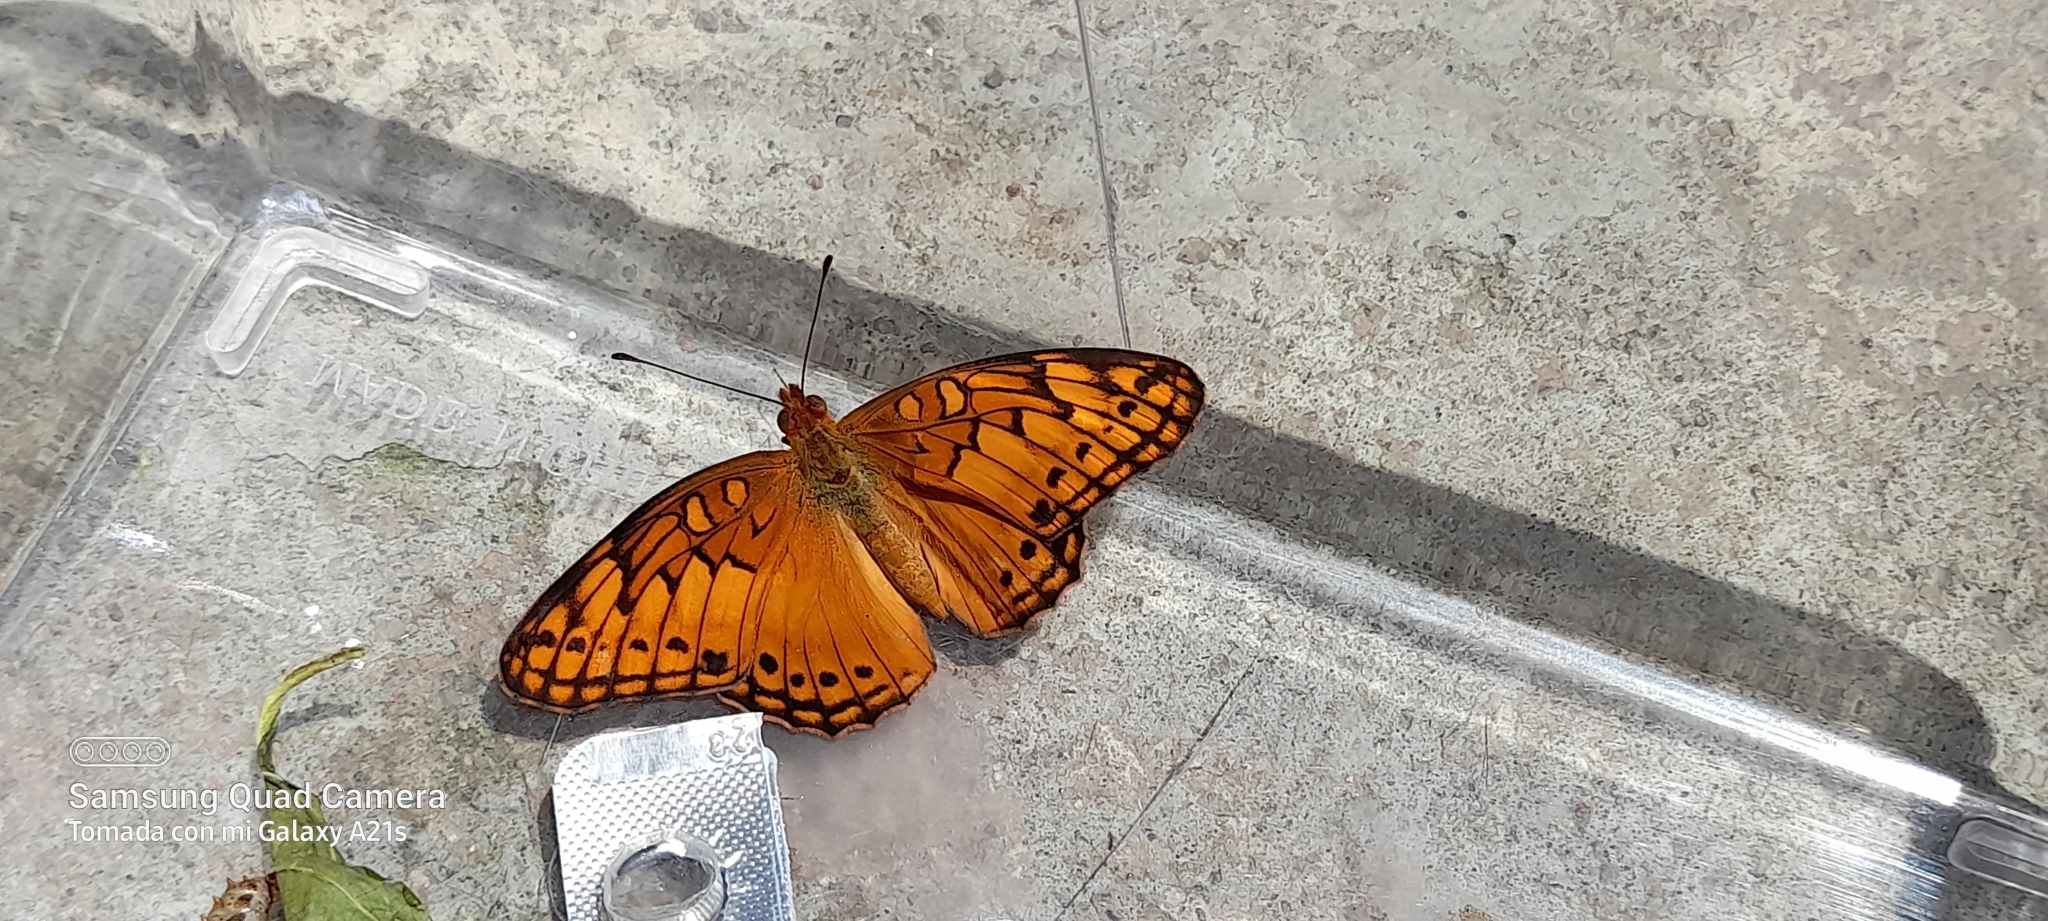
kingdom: Animalia
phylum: Arthropoda
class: Insecta
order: Lepidoptera
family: Nymphalidae
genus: Euptoieta
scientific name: Euptoieta hegesia
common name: Mexican fritillary
